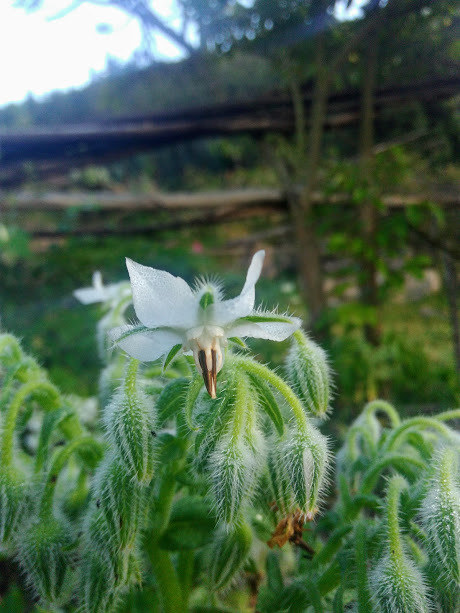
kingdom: Plantae
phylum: Tracheophyta
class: Magnoliopsida
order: Boraginales
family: Boraginaceae
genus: Borago
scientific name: Borago officinalis
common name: Borage
